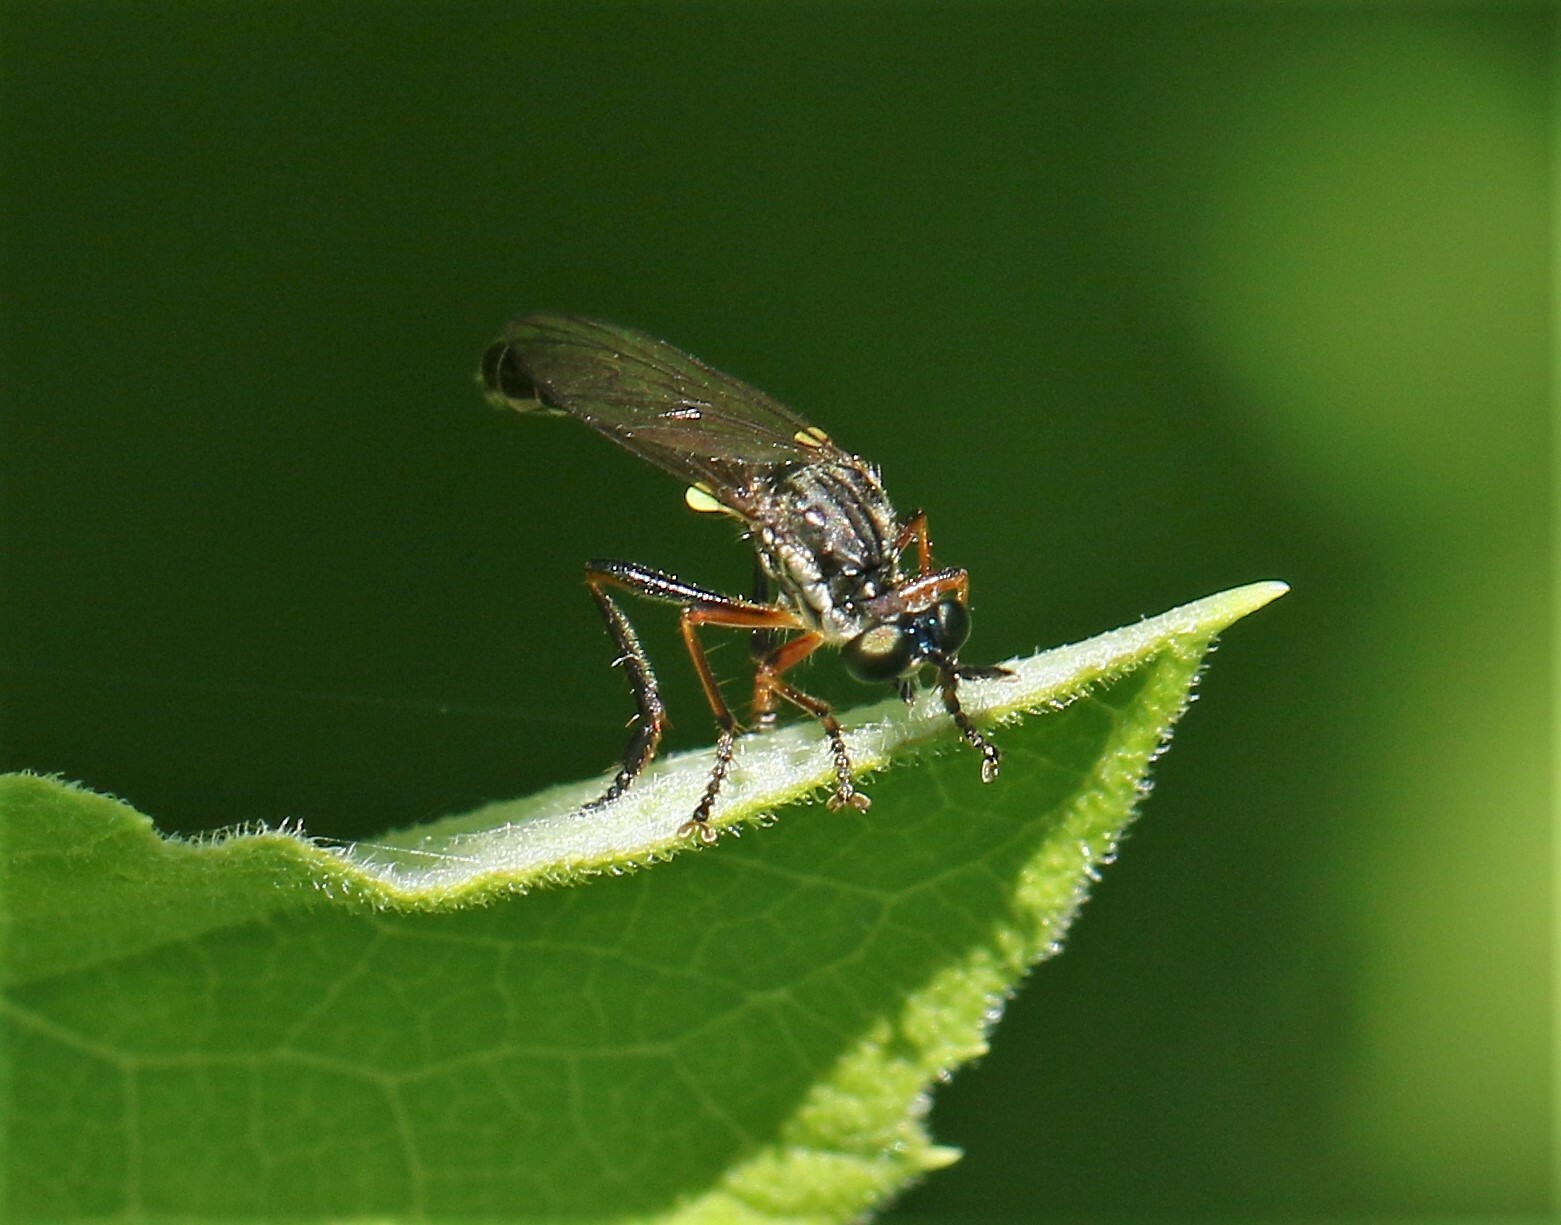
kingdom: Animalia
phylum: Arthropoda
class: Insecta
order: Diptera
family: Asilidae
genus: Dioctria
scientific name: Dioctria hyalipennis
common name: Stripe-legged robberfly
